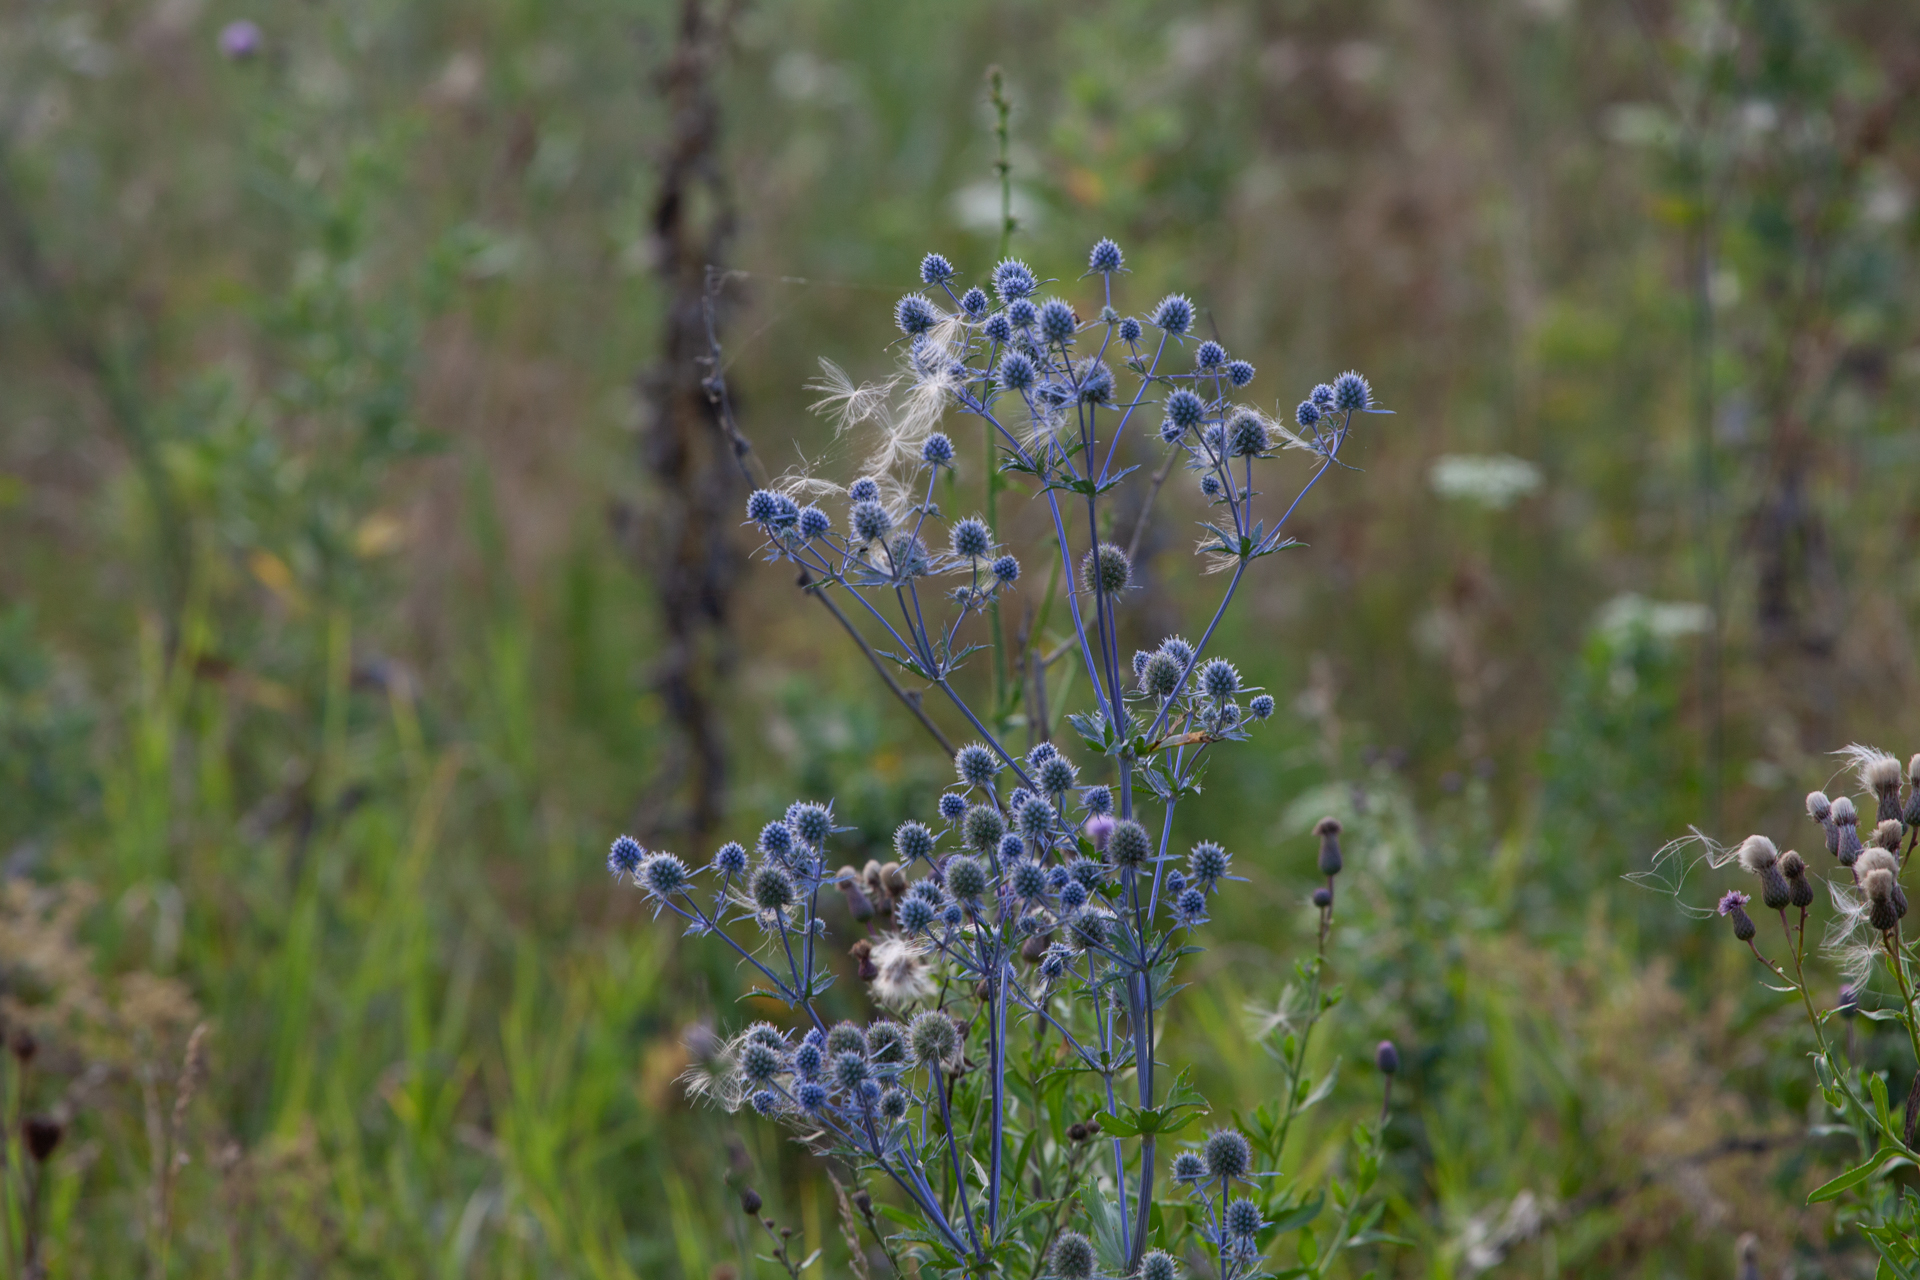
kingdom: Plantae
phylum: Tracheophyta
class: Magnoliopsida
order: Apiales
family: Apiaceae
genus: Eryngium
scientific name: Eryngium planum
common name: Blue eryngo
